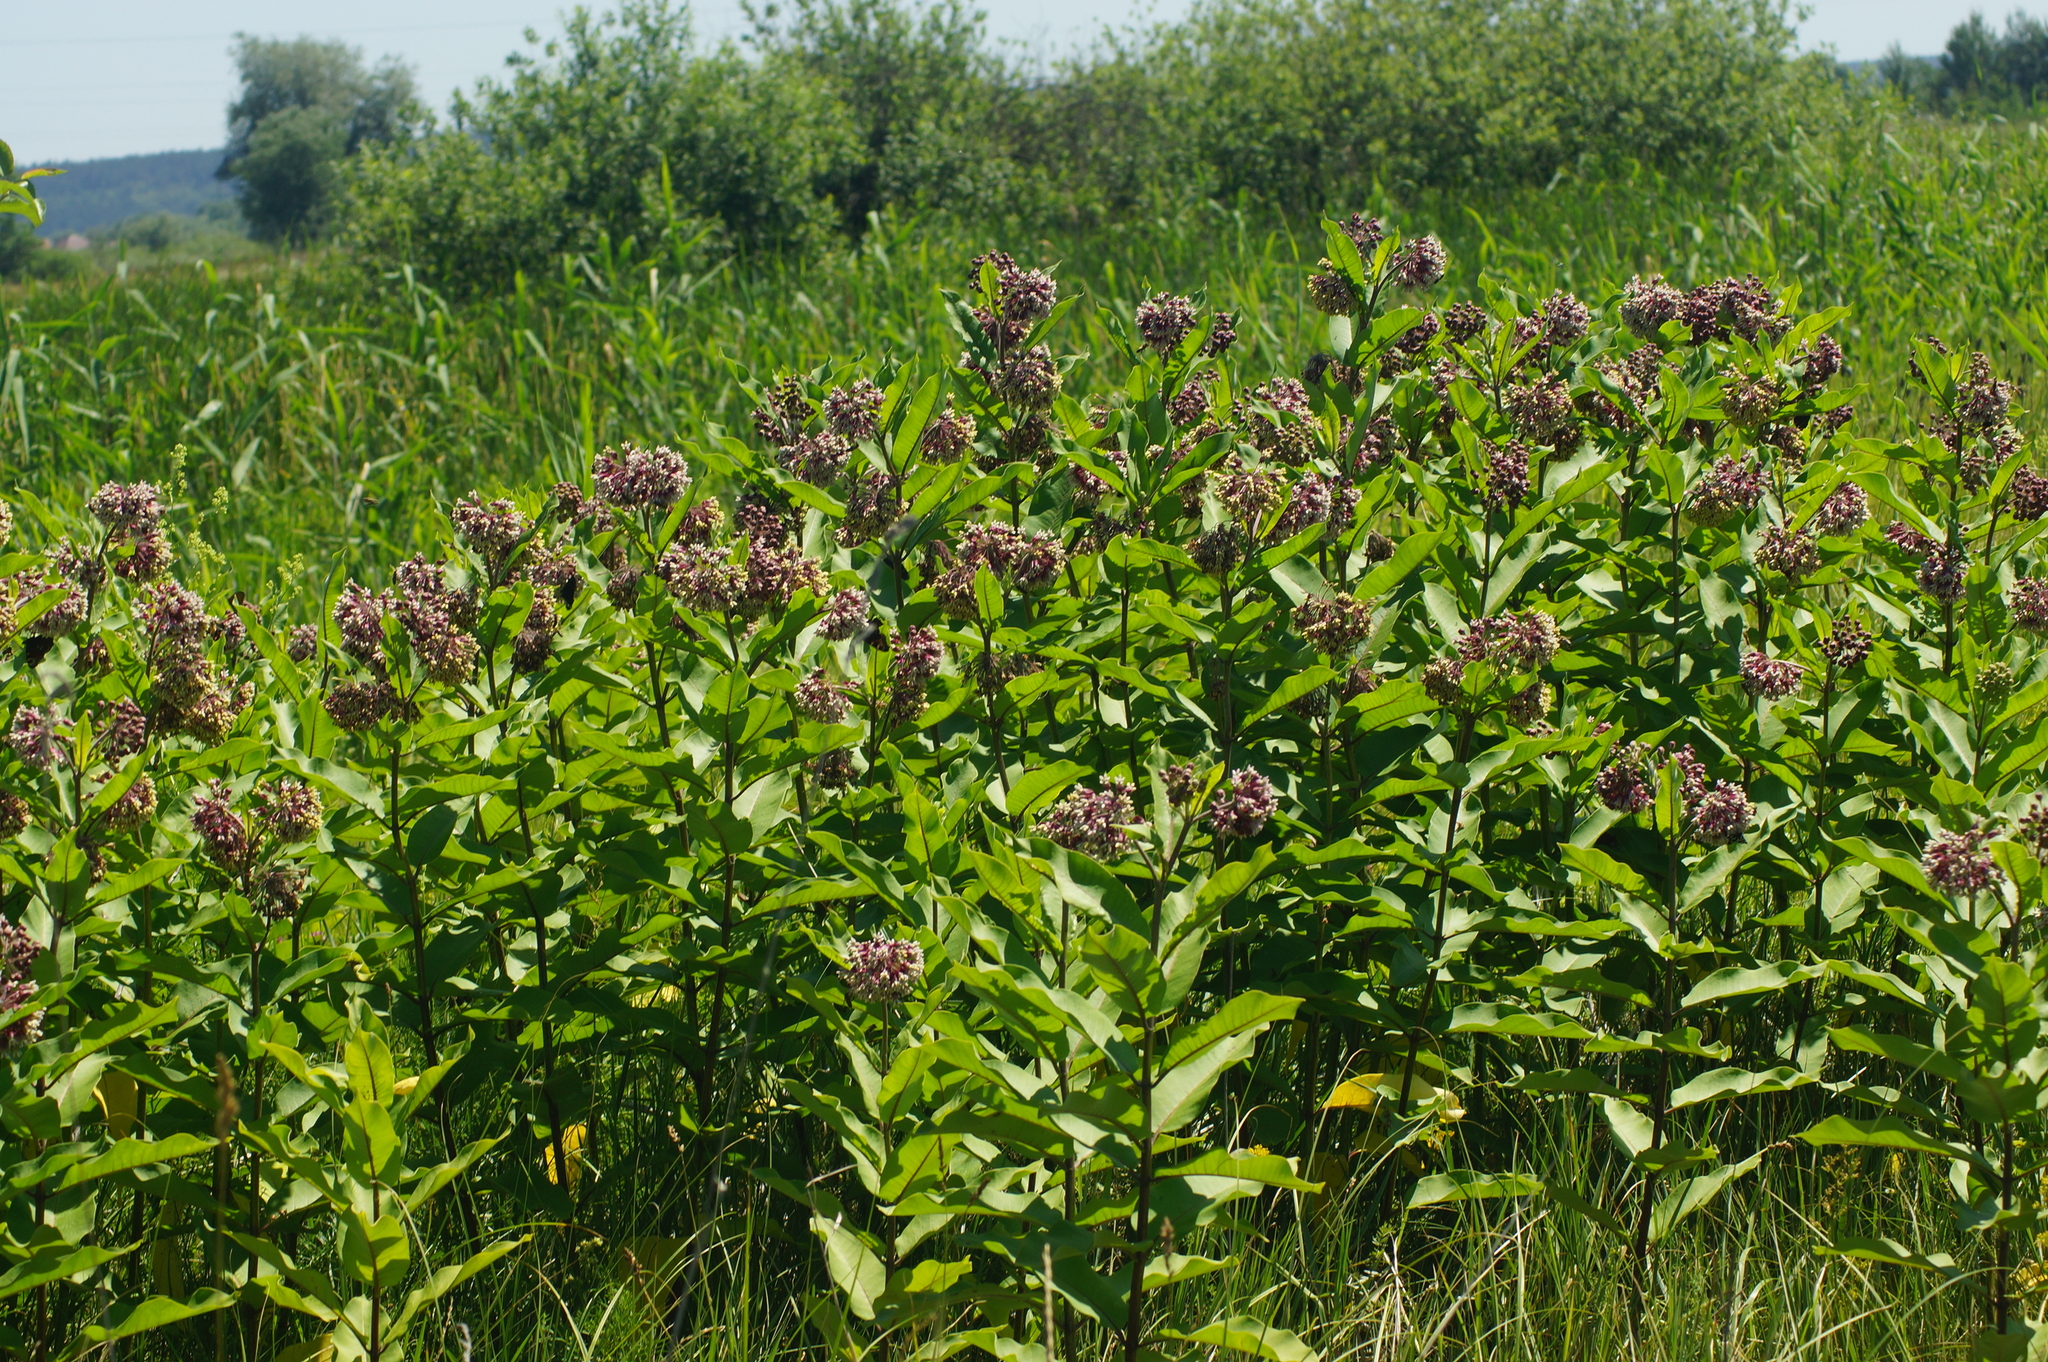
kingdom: Plantae
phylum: Tracheophyta
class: Magnoliopsida
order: Gentianales
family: Apocynaceae
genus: Asclepias
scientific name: Asclepias syriaca
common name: Common milkweed
